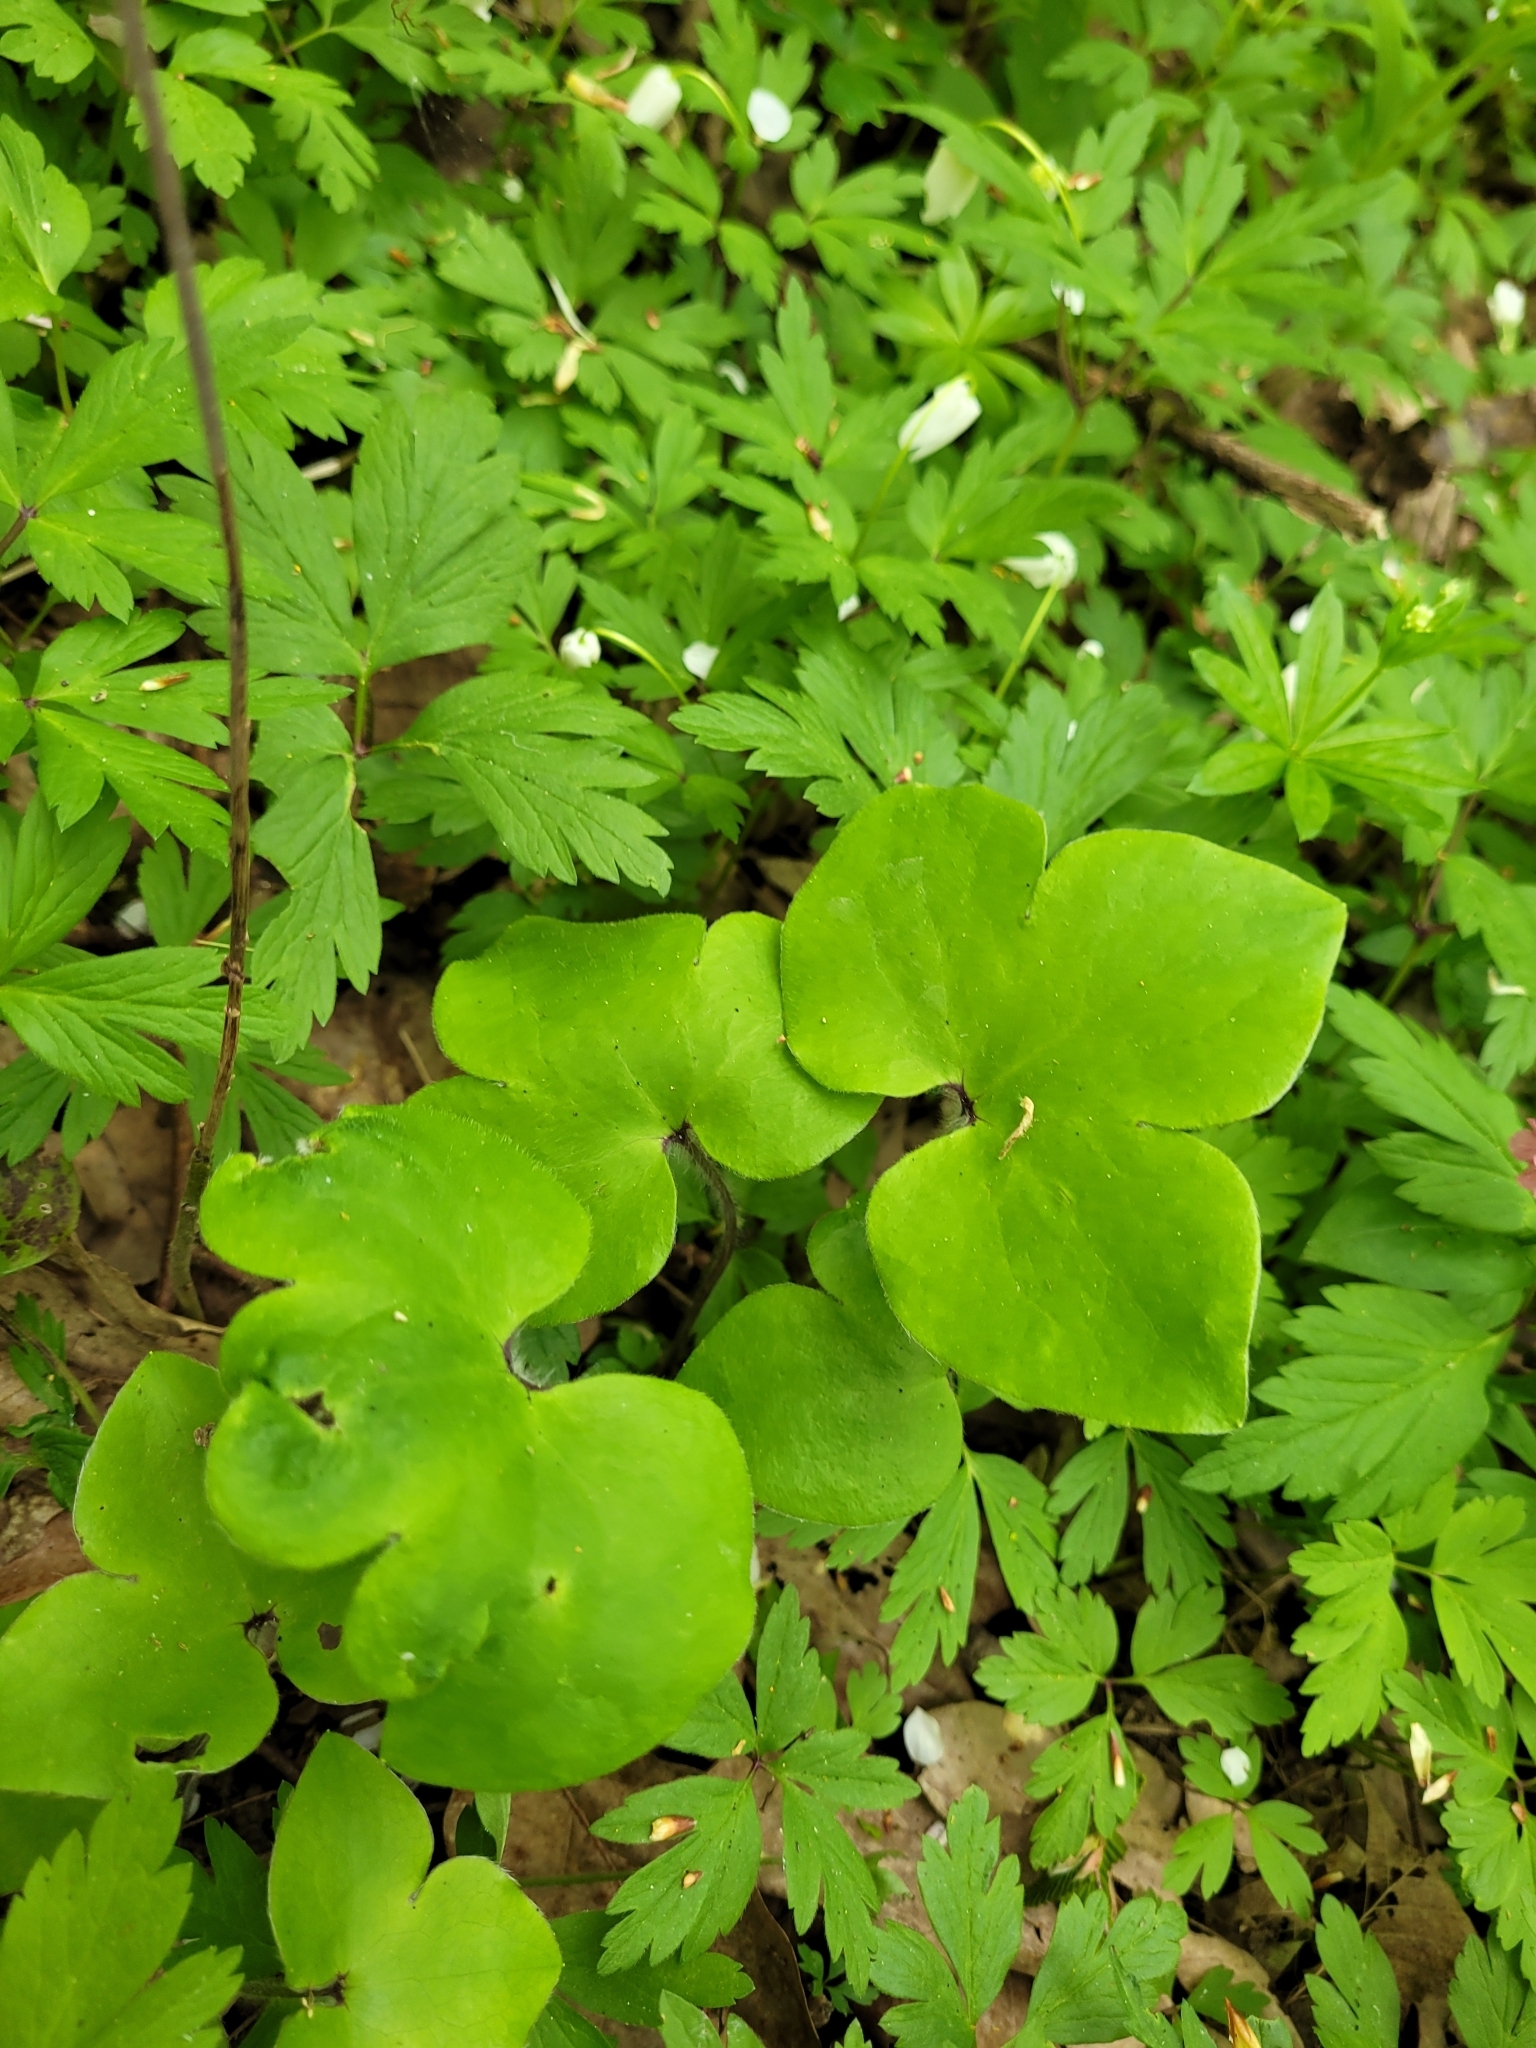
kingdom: Plantae
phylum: Tracheophyta
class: Magnoliopsida
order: Ranunculales
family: Ranunculaceae
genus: Hepatica
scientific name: Hepatica nobilis
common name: Liverleaf
